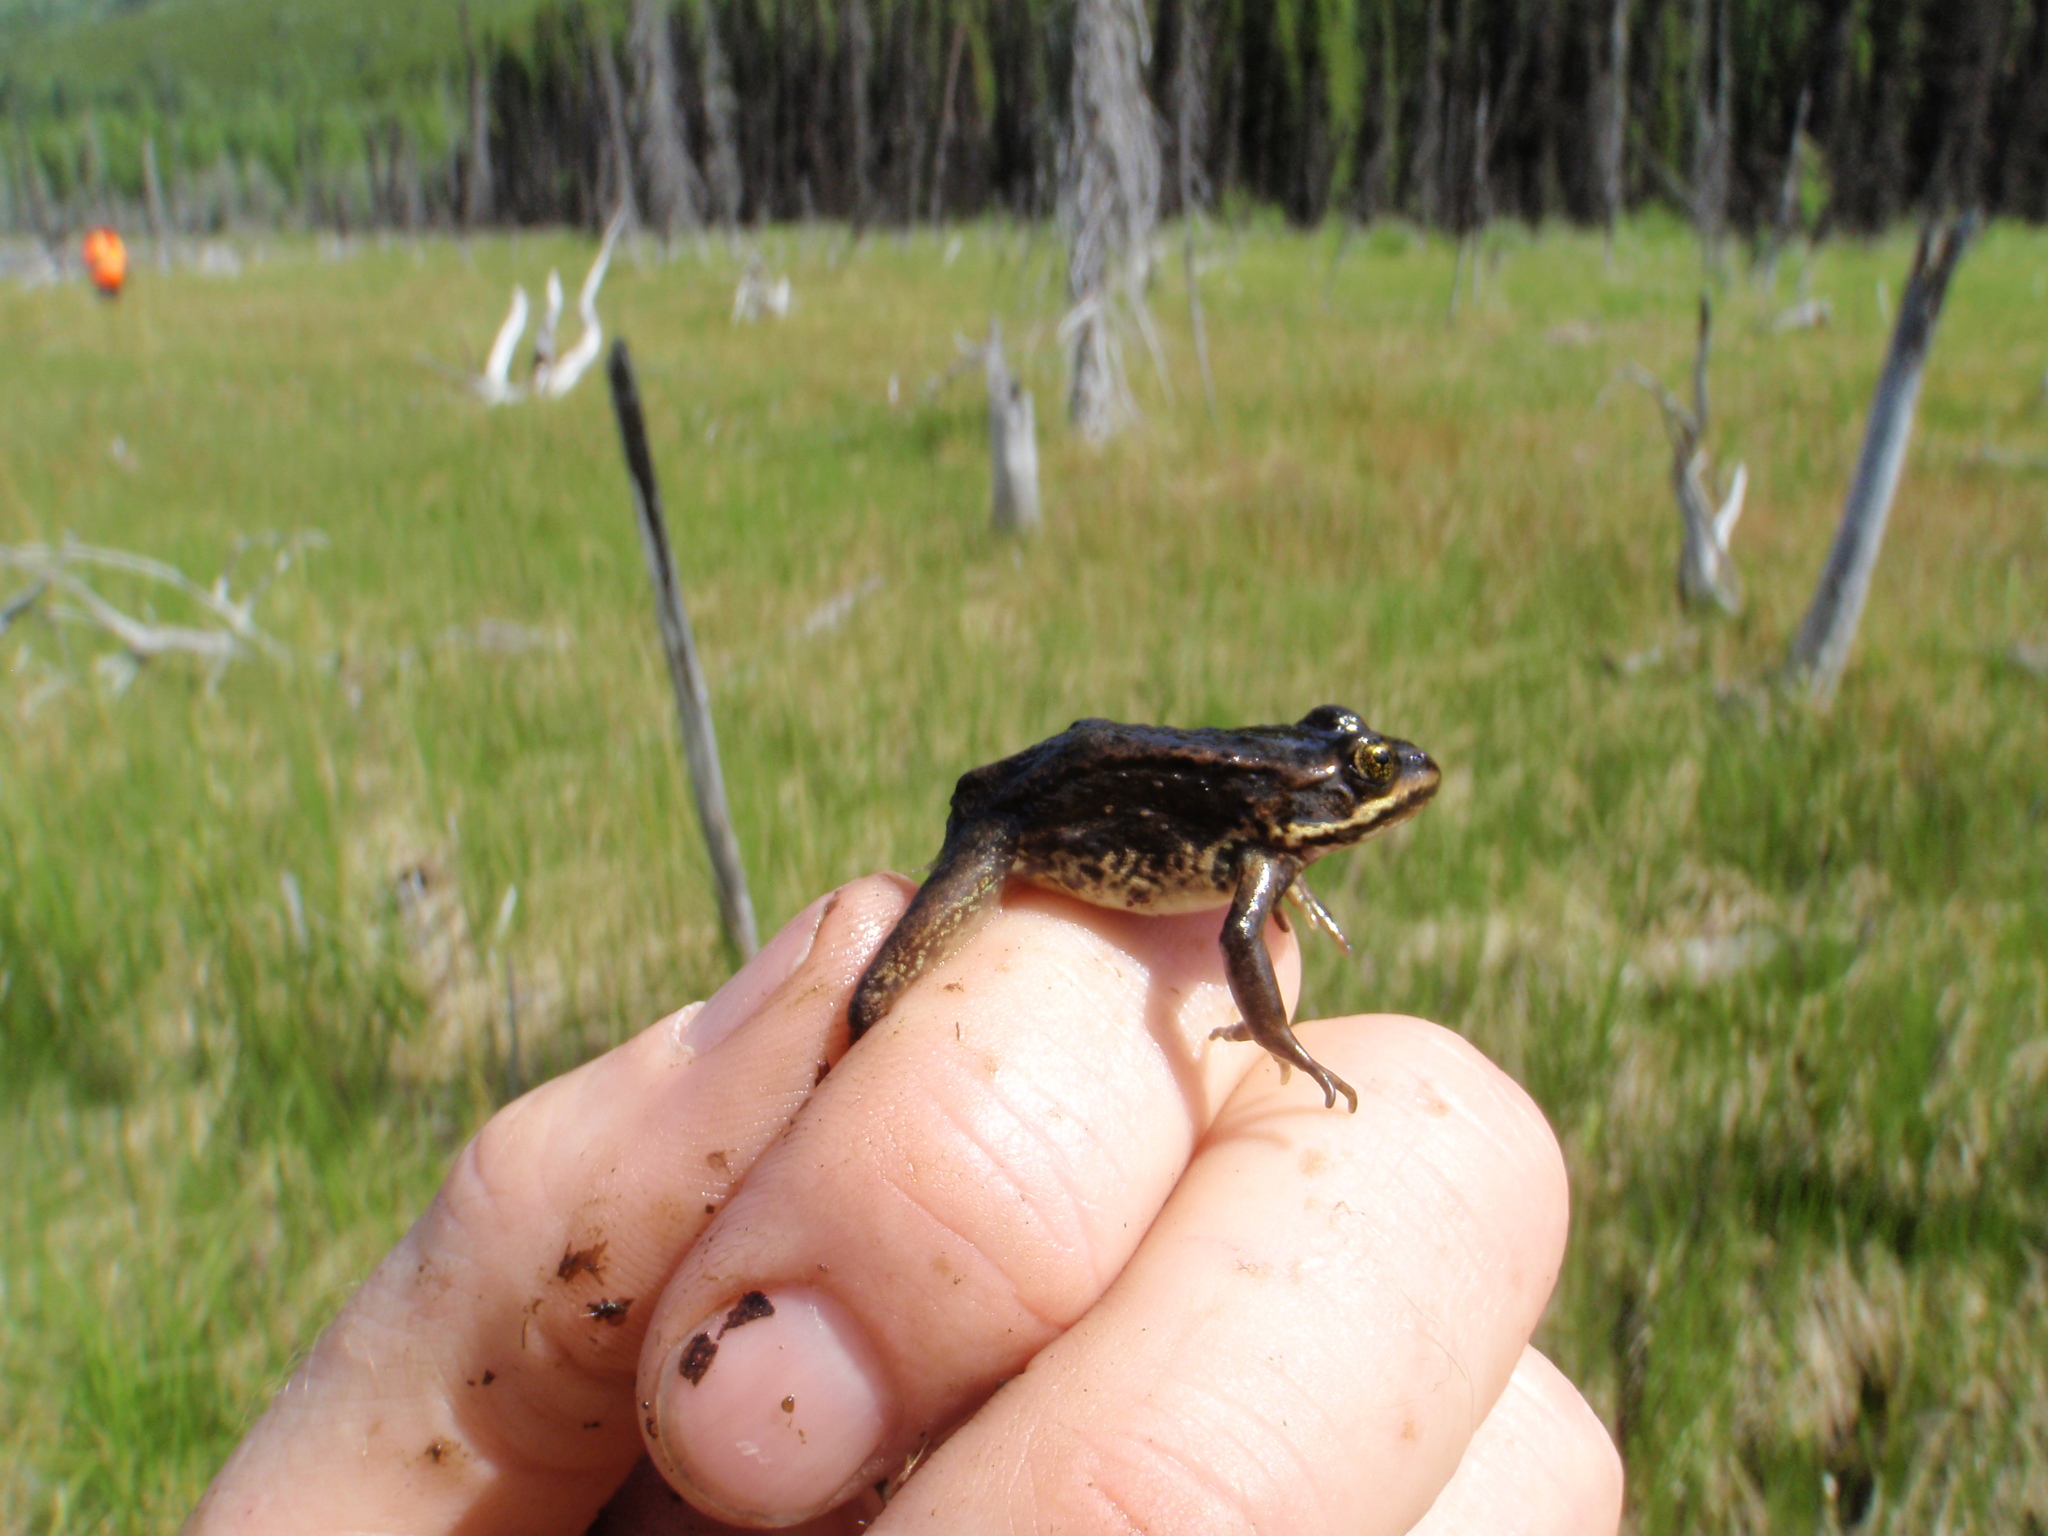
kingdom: Animalia
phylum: Chordata
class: Amphibia
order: Anura
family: Ranidae
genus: Rana
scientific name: Rana luteiventris
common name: Columbia spotted frog
